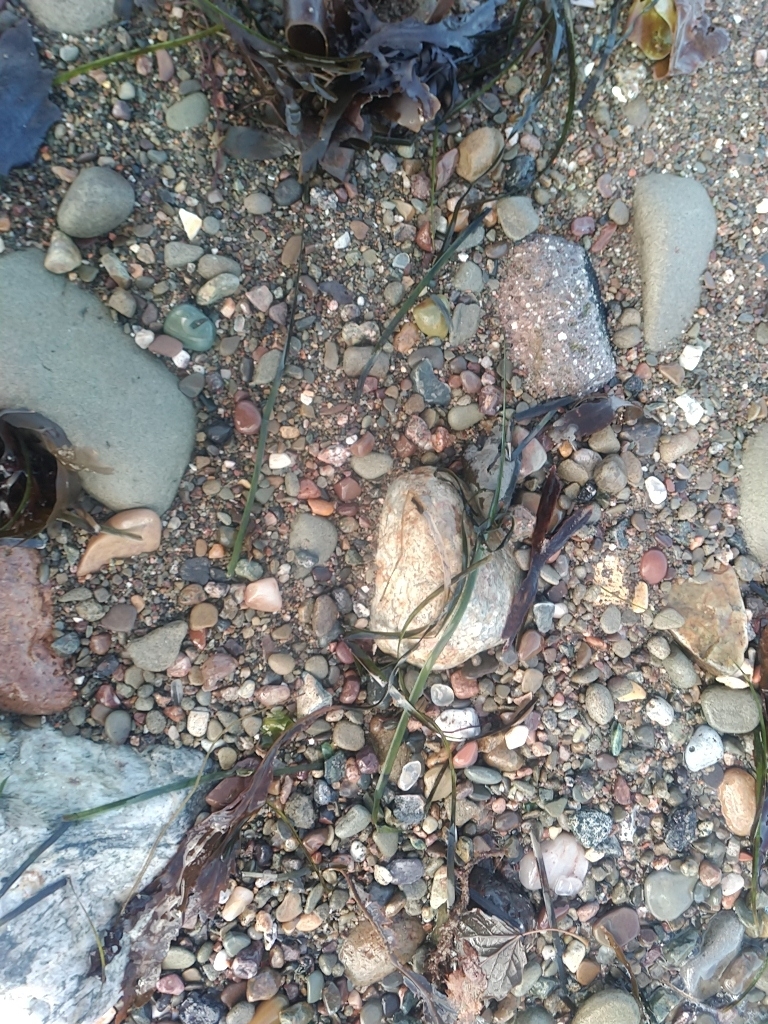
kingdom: Plantae
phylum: Tracheophyta
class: Liliopsida
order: Alismatales
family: Zosteraceae
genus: Zostera
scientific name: Zostera marina
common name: Eelgrass
